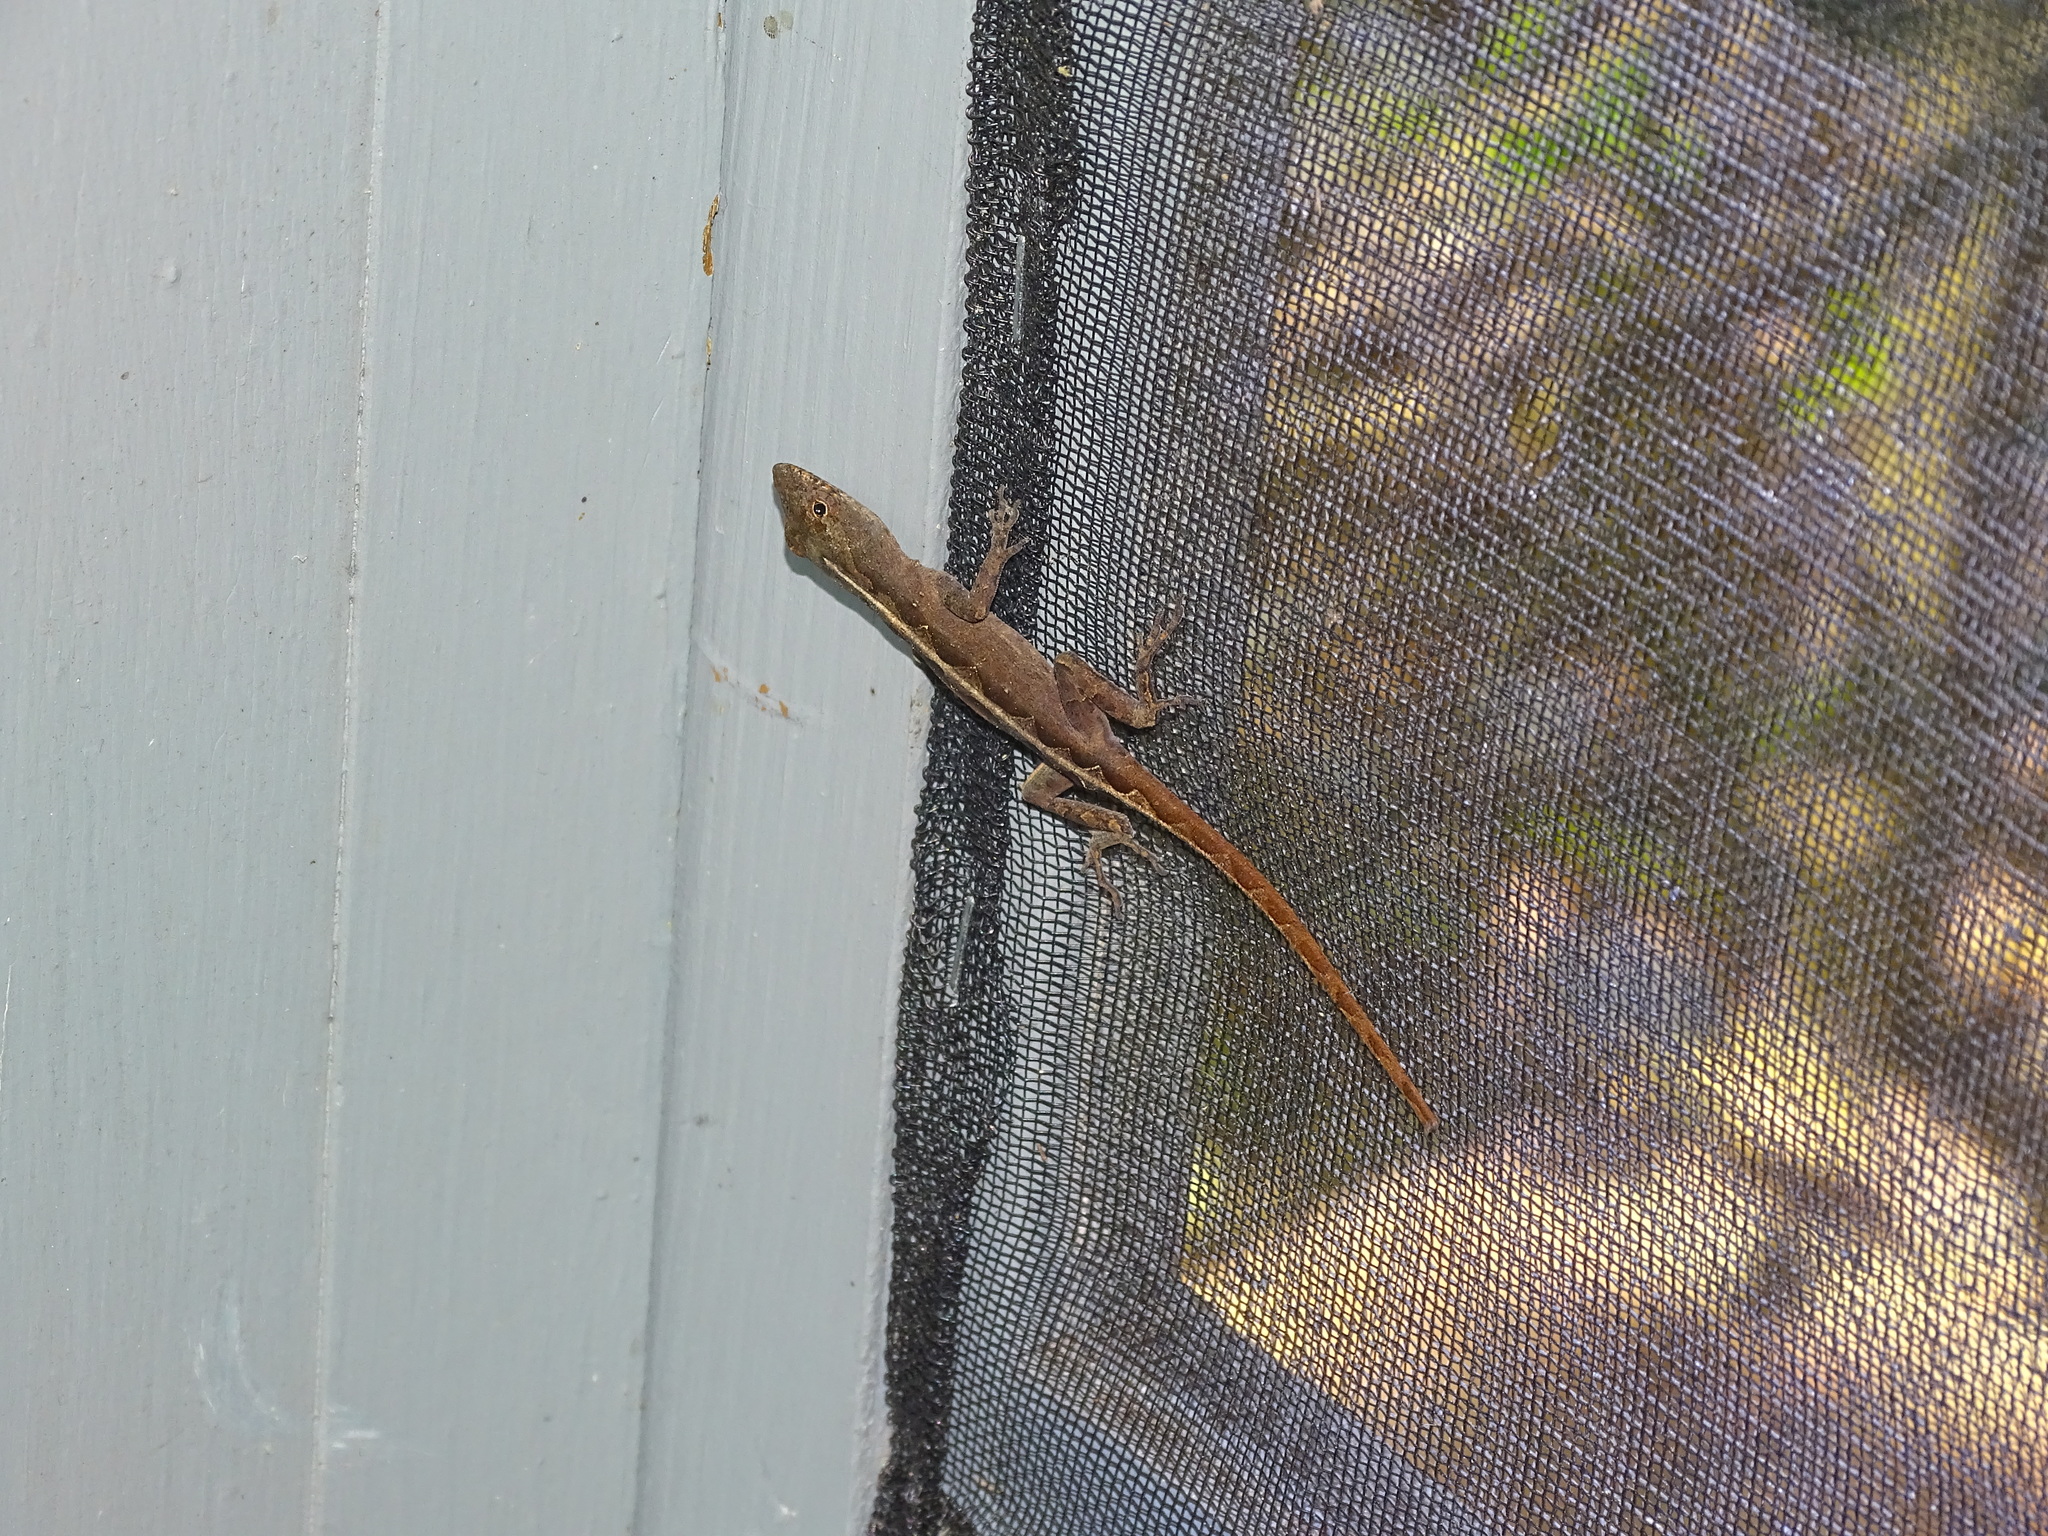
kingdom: Animalia
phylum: Chordata
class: Squamata
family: Dactyloidae
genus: Anolis
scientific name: Anolis sagrei
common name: Brown anole
